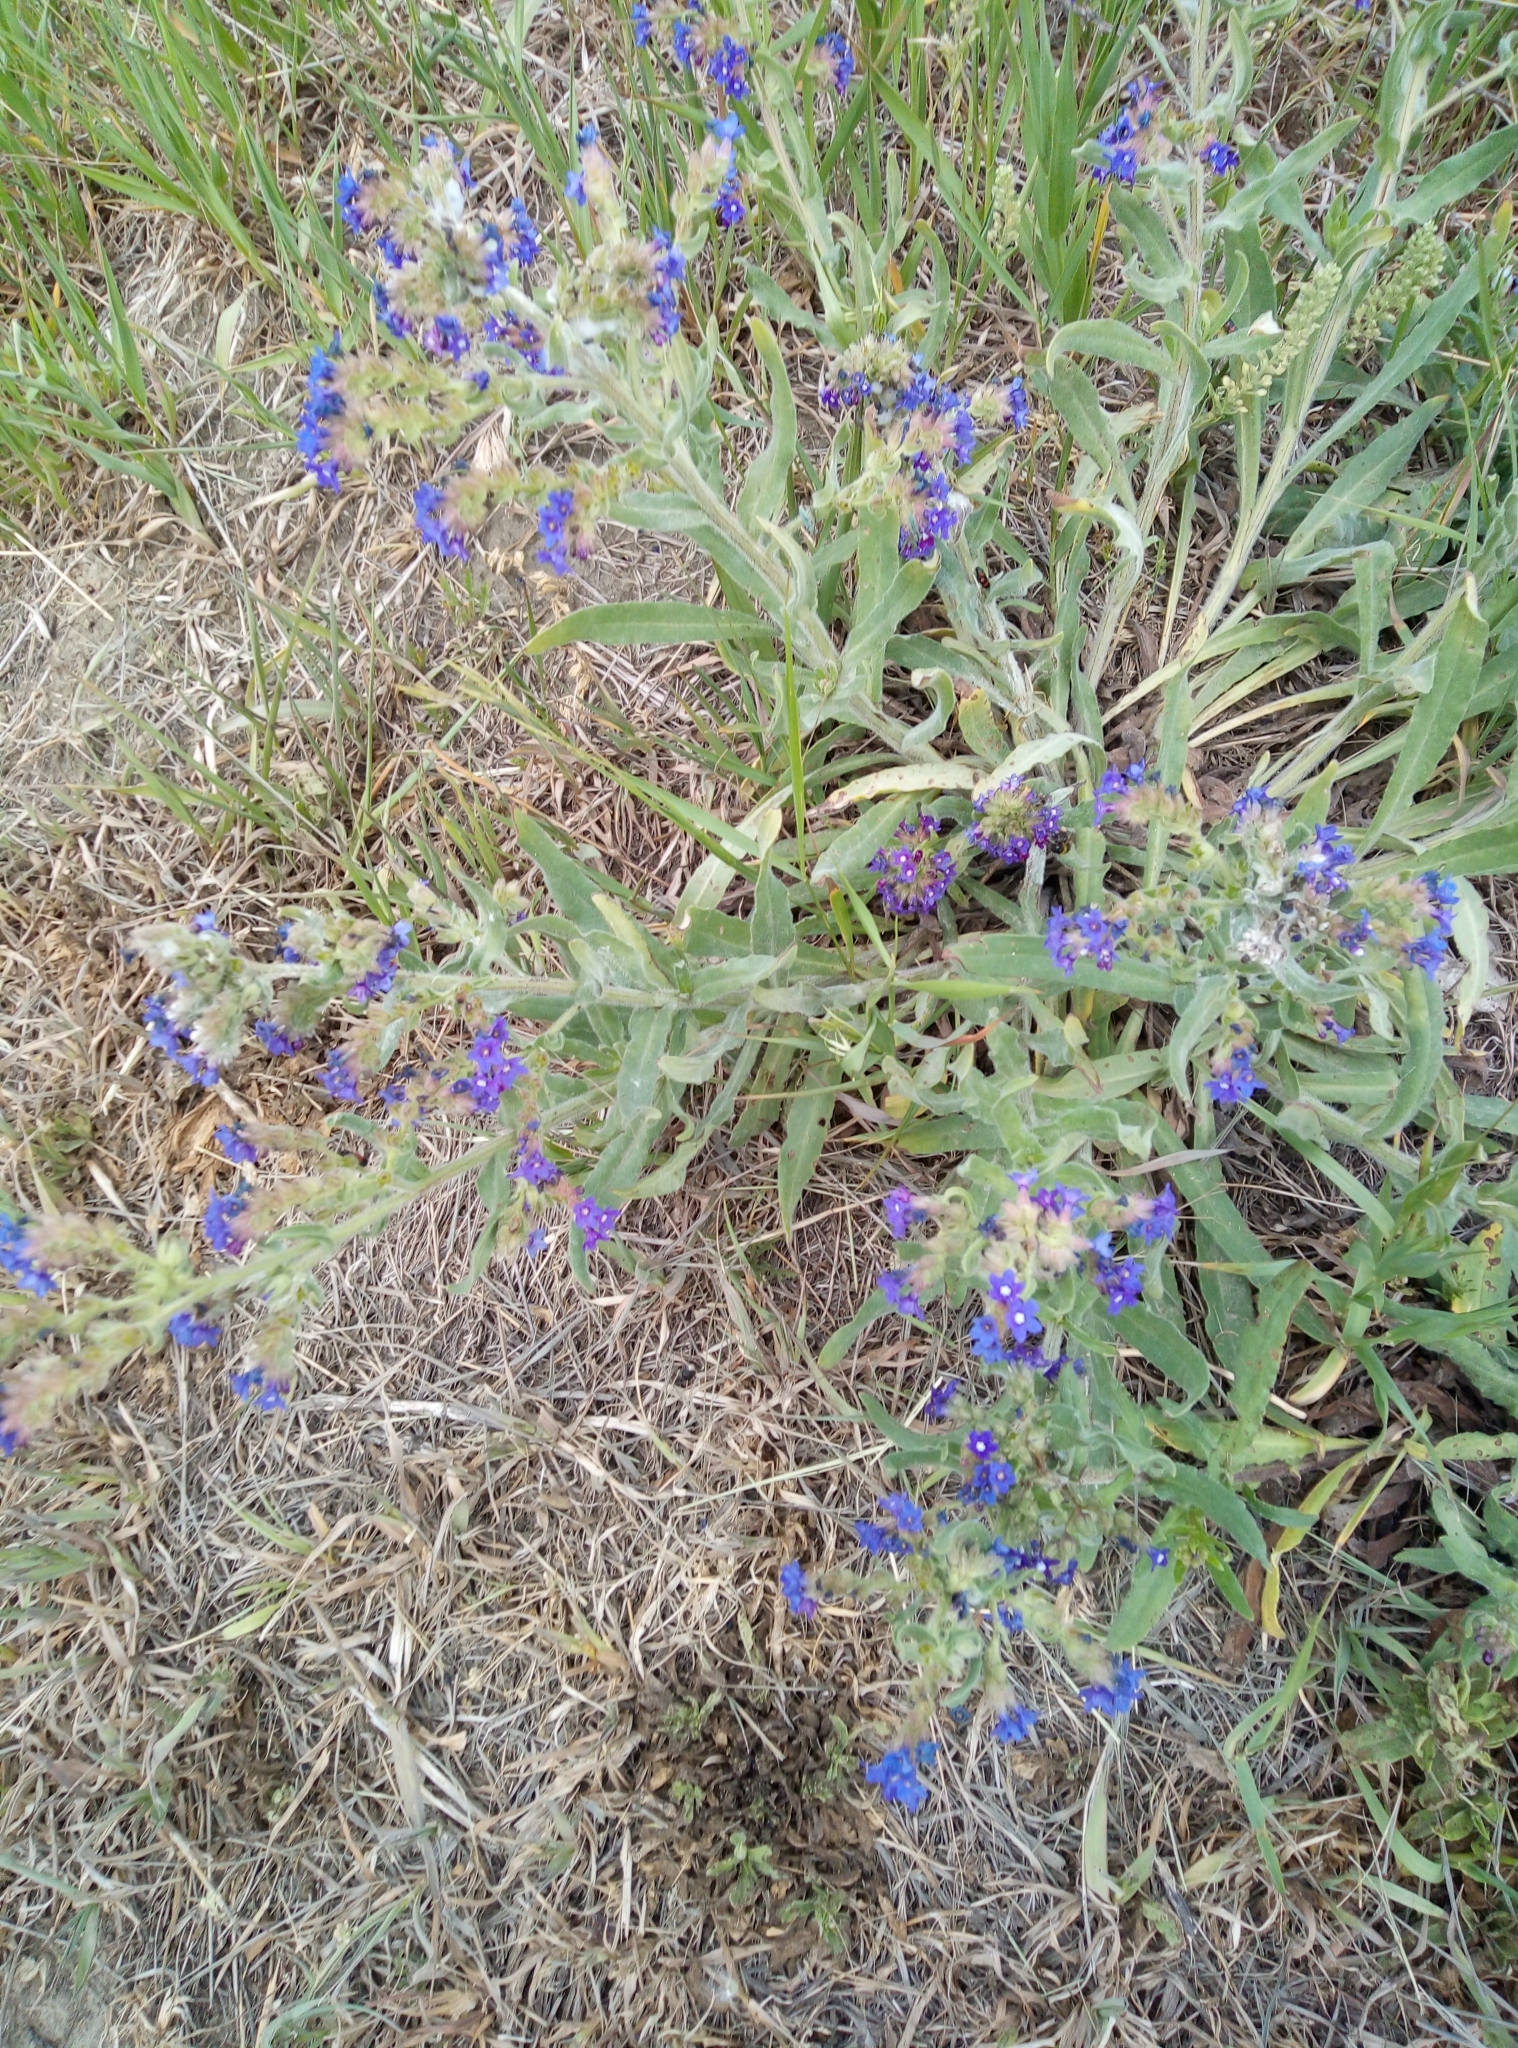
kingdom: Plantae
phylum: Tracheophyta
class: Magnoliopsida
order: Boraginales
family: Boraginaceae
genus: Anchusa
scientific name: Anchusa officinalis
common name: Alkanet
